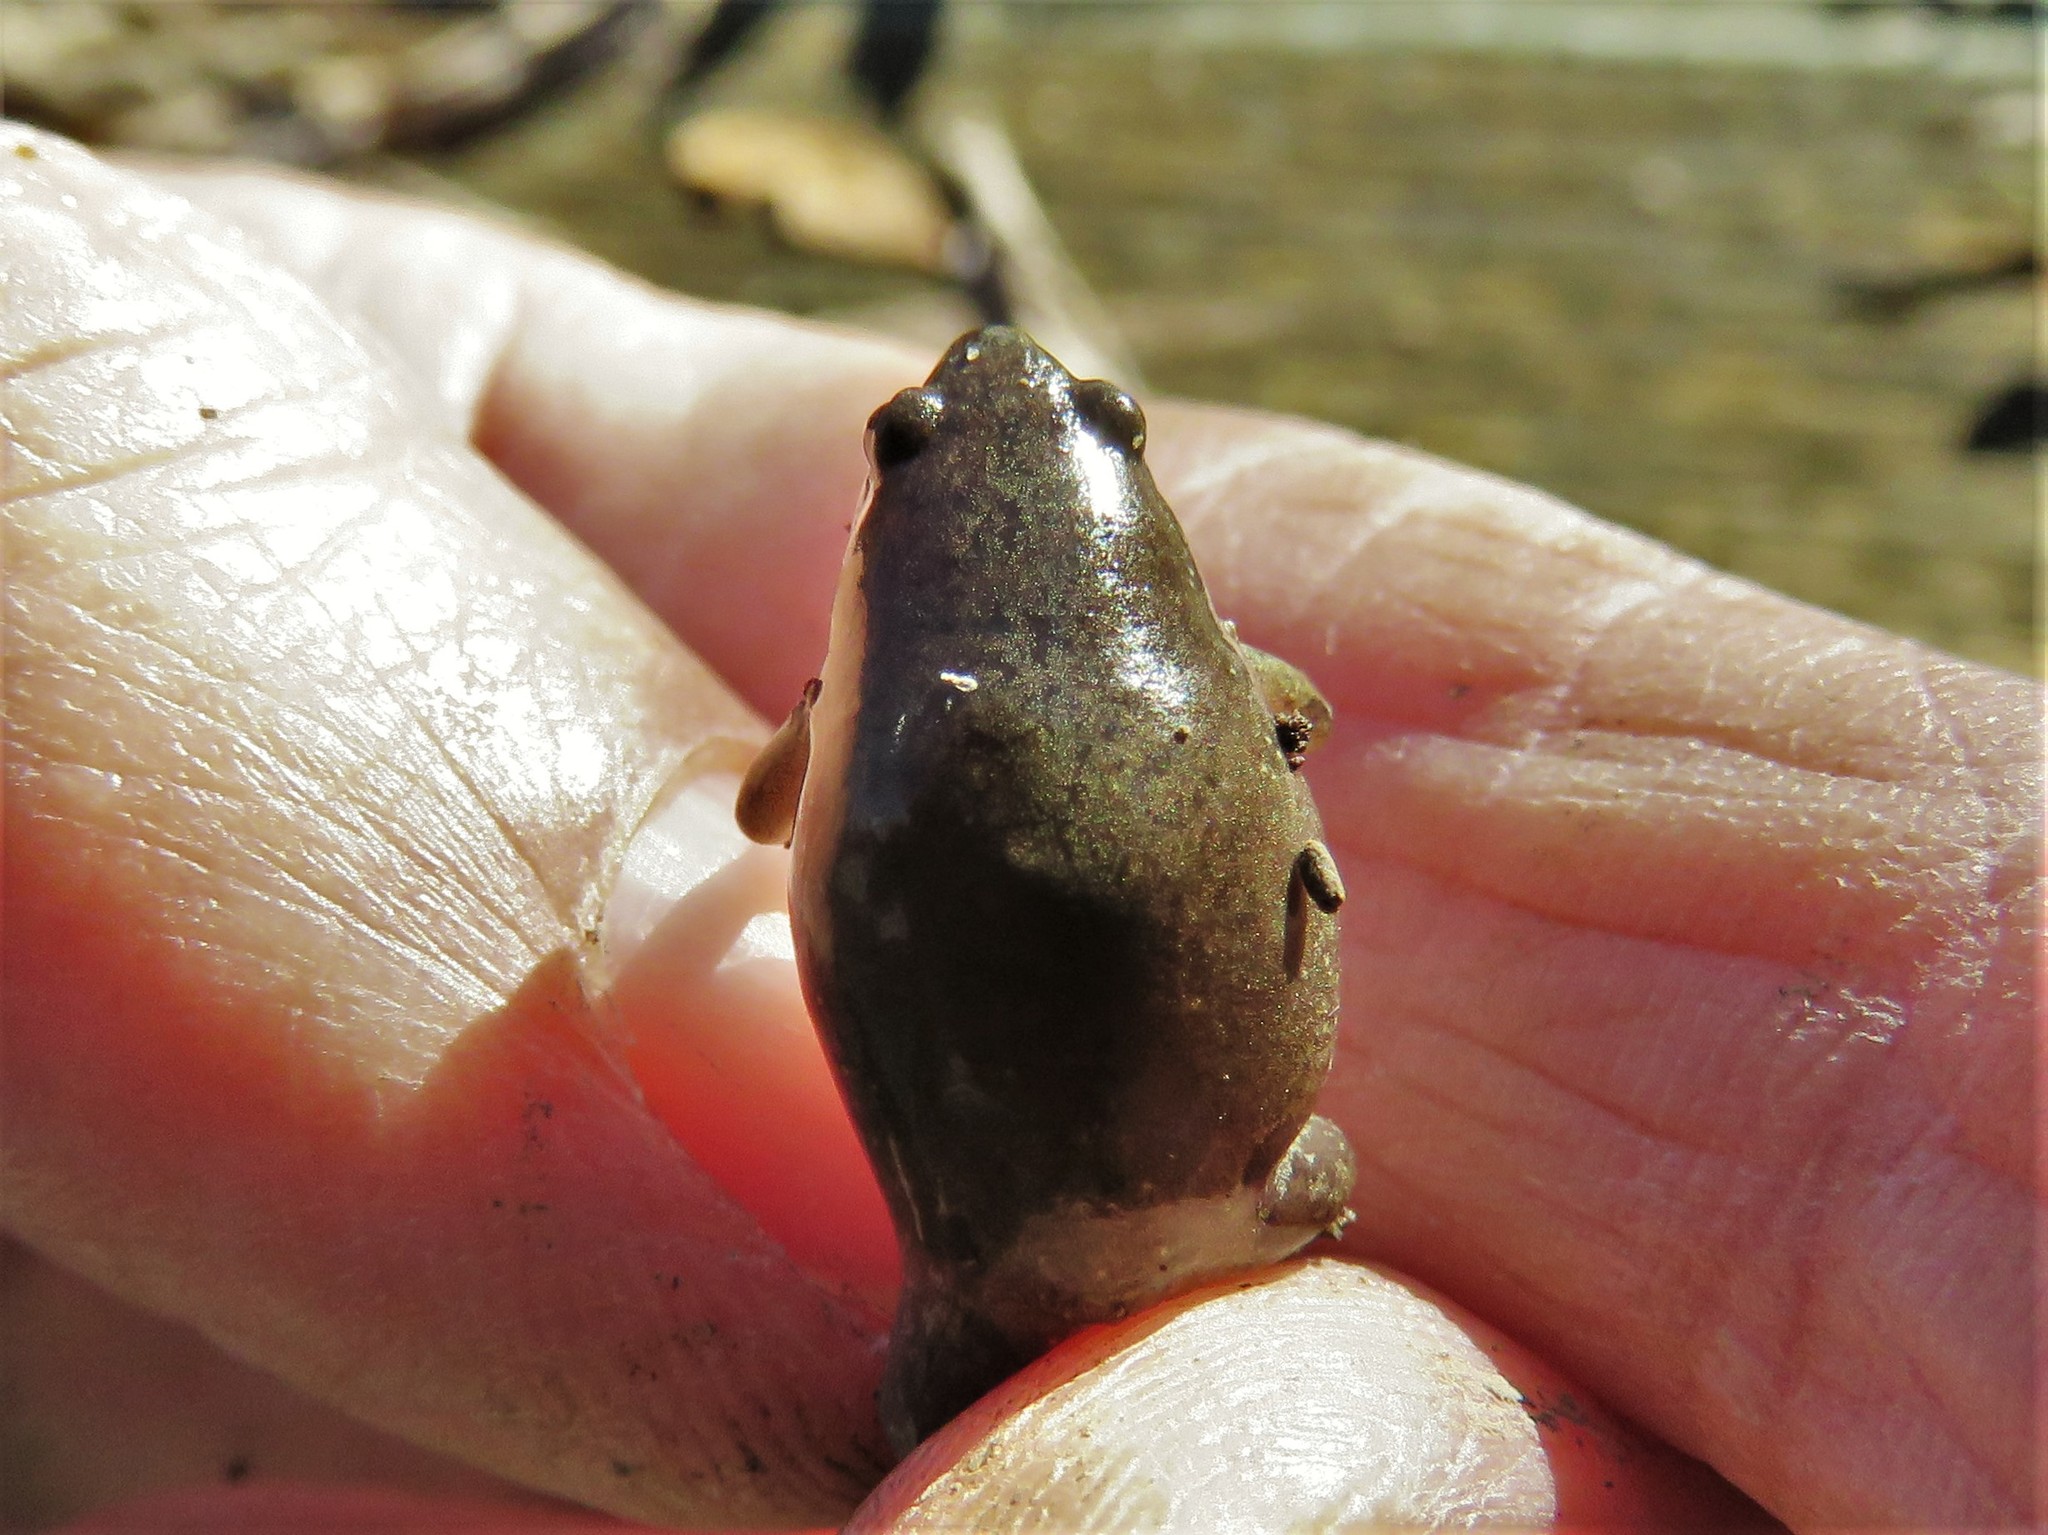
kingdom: Animalia
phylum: Chordata
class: Amphibia
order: Anura
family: Microhylidae
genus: Gastrophryne
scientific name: Gastrophryne olivacea
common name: Great plains narrow-mouthed toad
